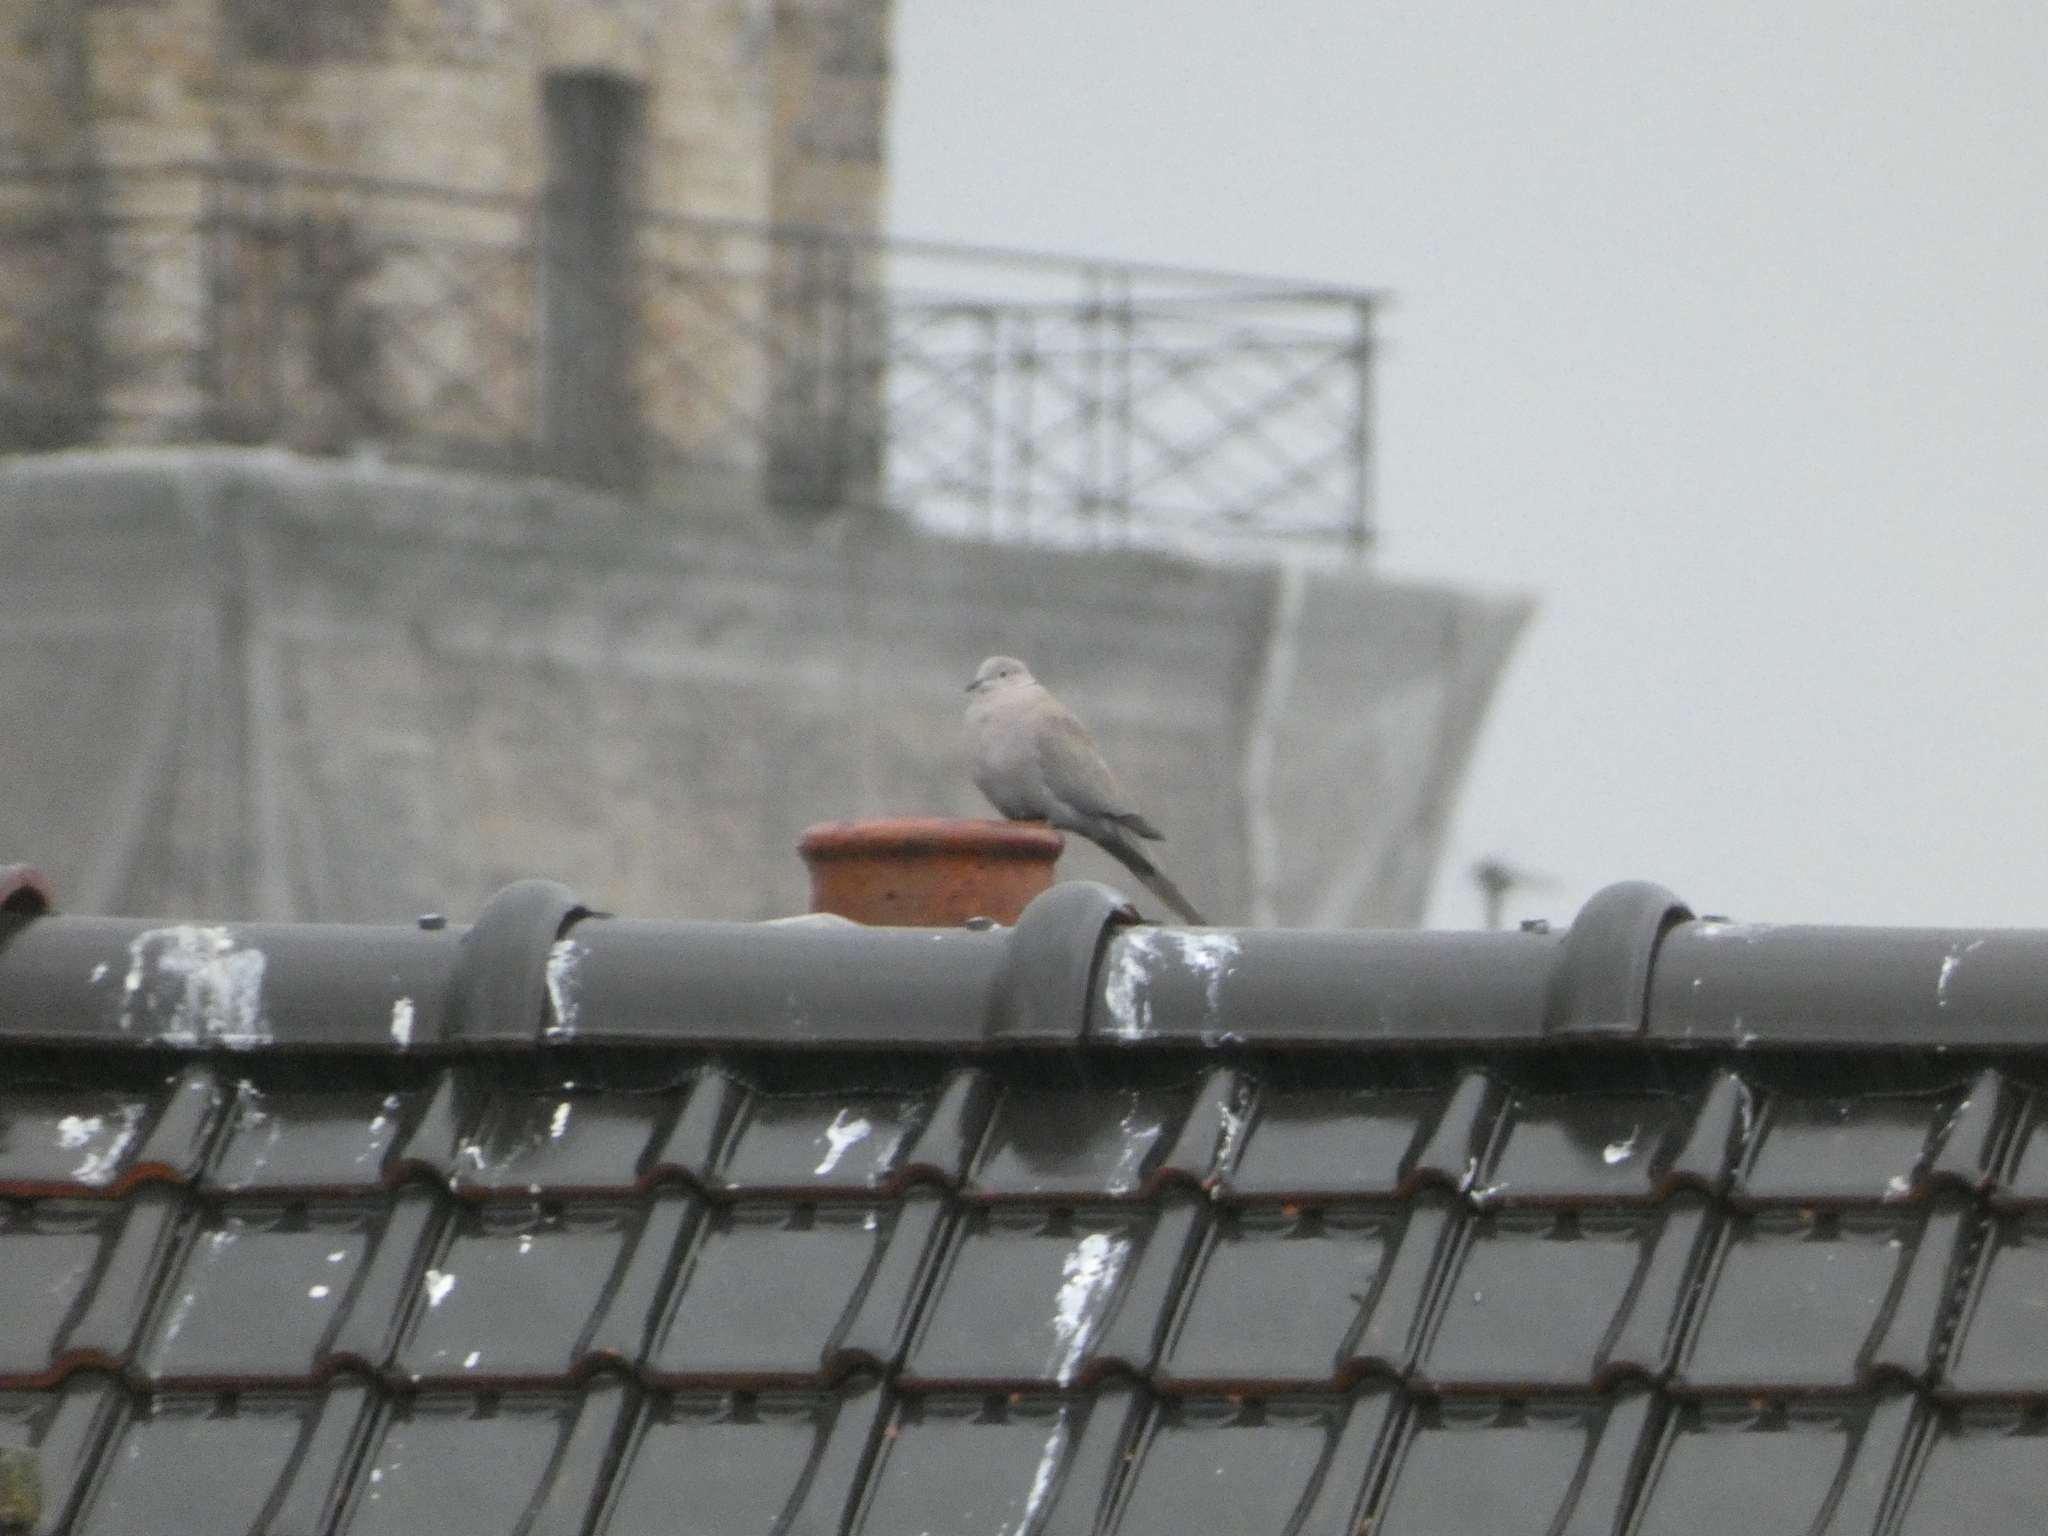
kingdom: Animalia
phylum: Chordata
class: Aves
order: Columbiformes
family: Columbidae
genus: Streptopelia
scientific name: Streptopelia decaocto
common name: Eurasian collared dove
